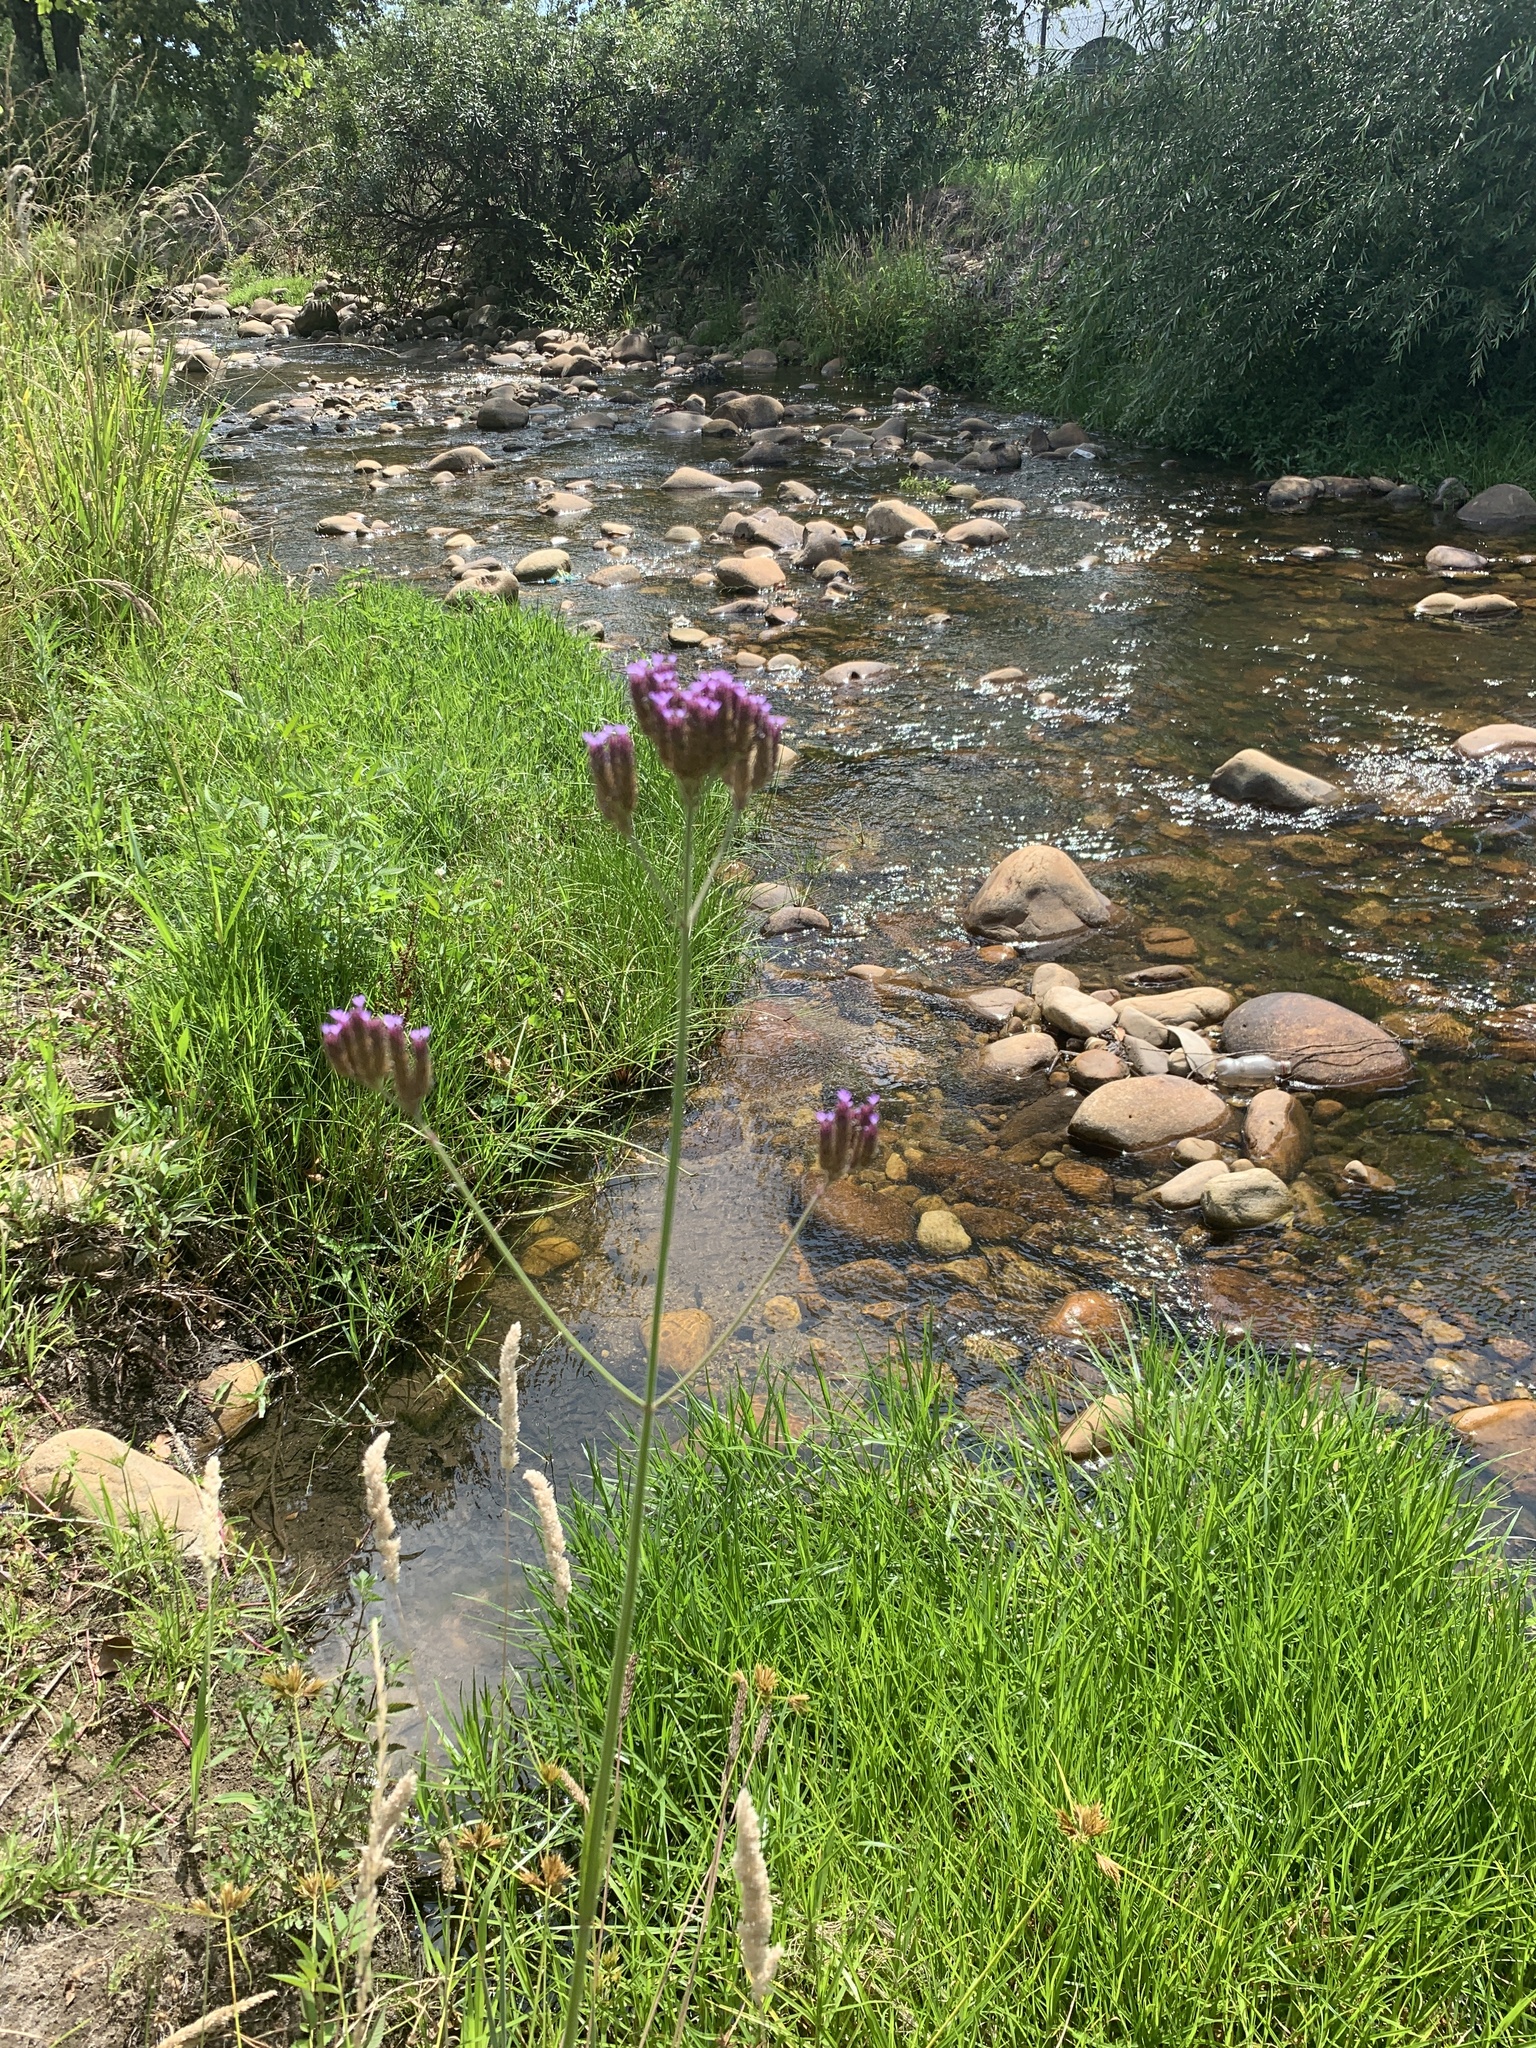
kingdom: Plantae
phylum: Tracheophyta
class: Magnoliopsida
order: Lamiales
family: Verbenaceae
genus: Verbena
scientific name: Verbena bonariensis
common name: Purpletop vervain
